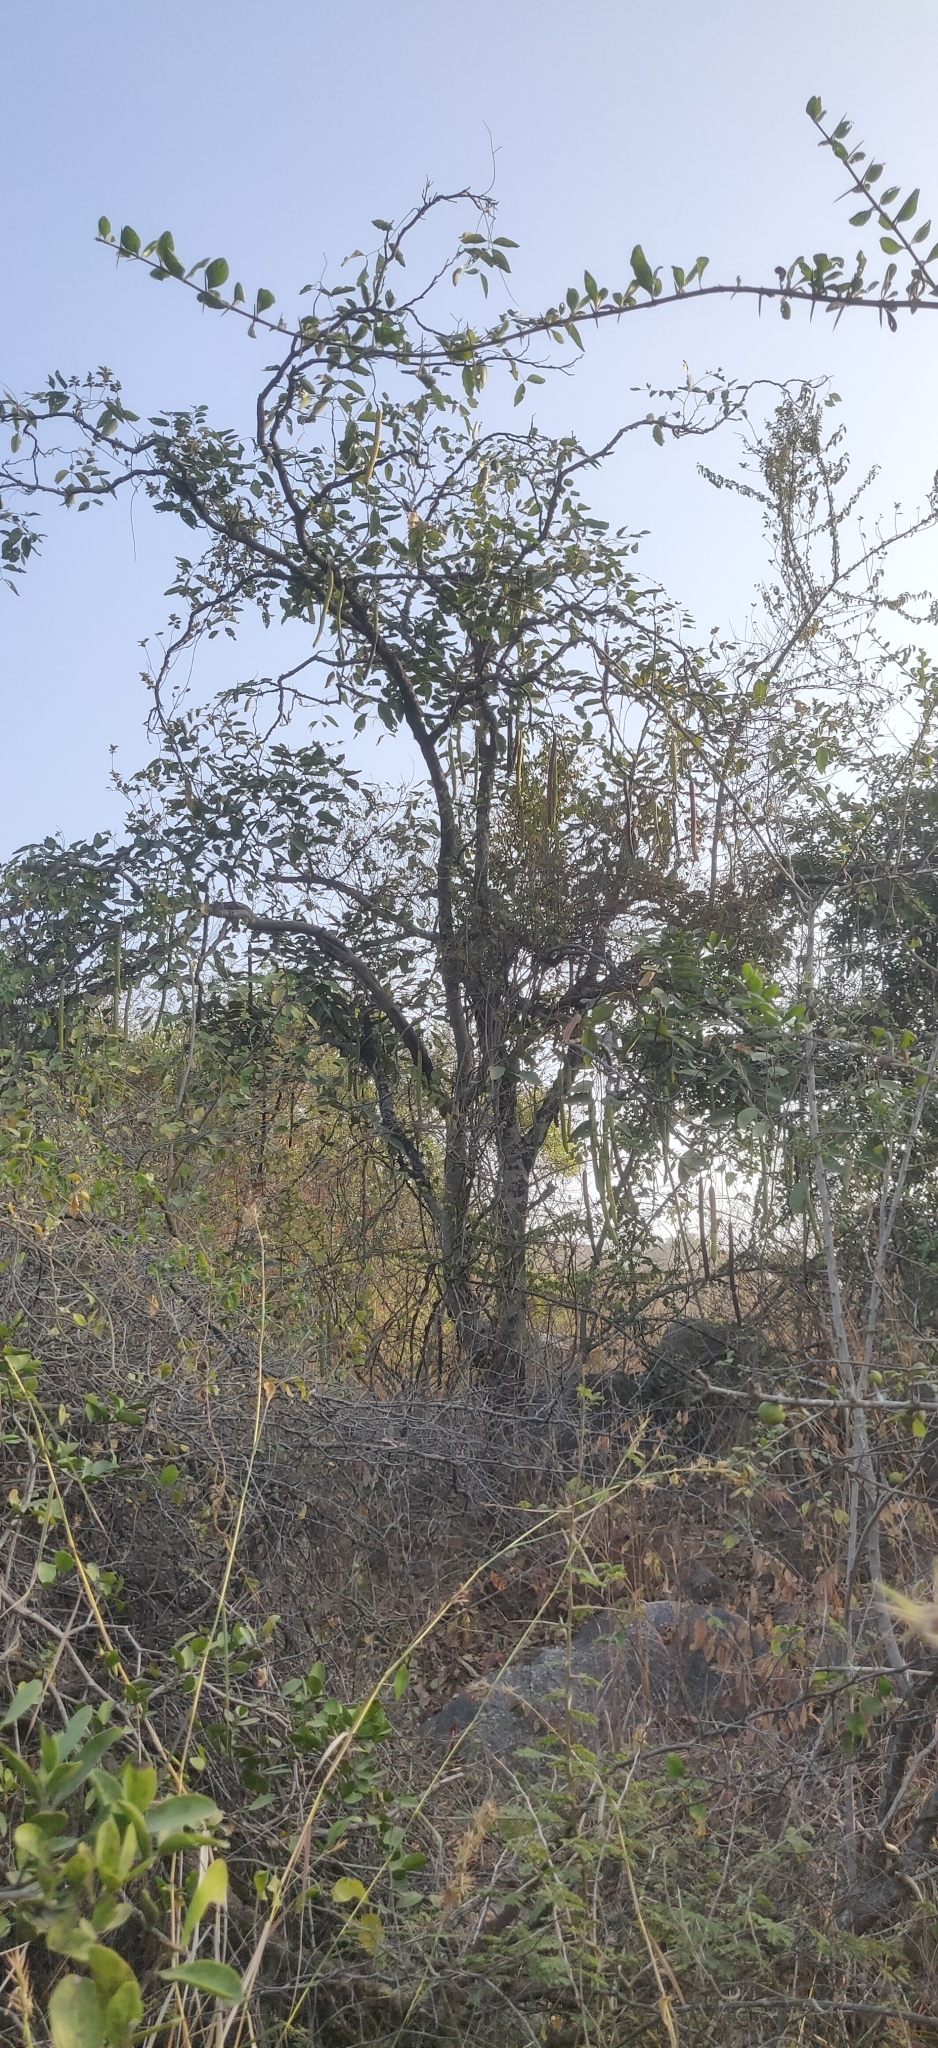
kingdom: Plantae
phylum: Tracheophyta
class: Magnoliopsida
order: Fabales
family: Fabaceae
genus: Cassia
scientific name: Cassia fistula
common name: Golden shower
